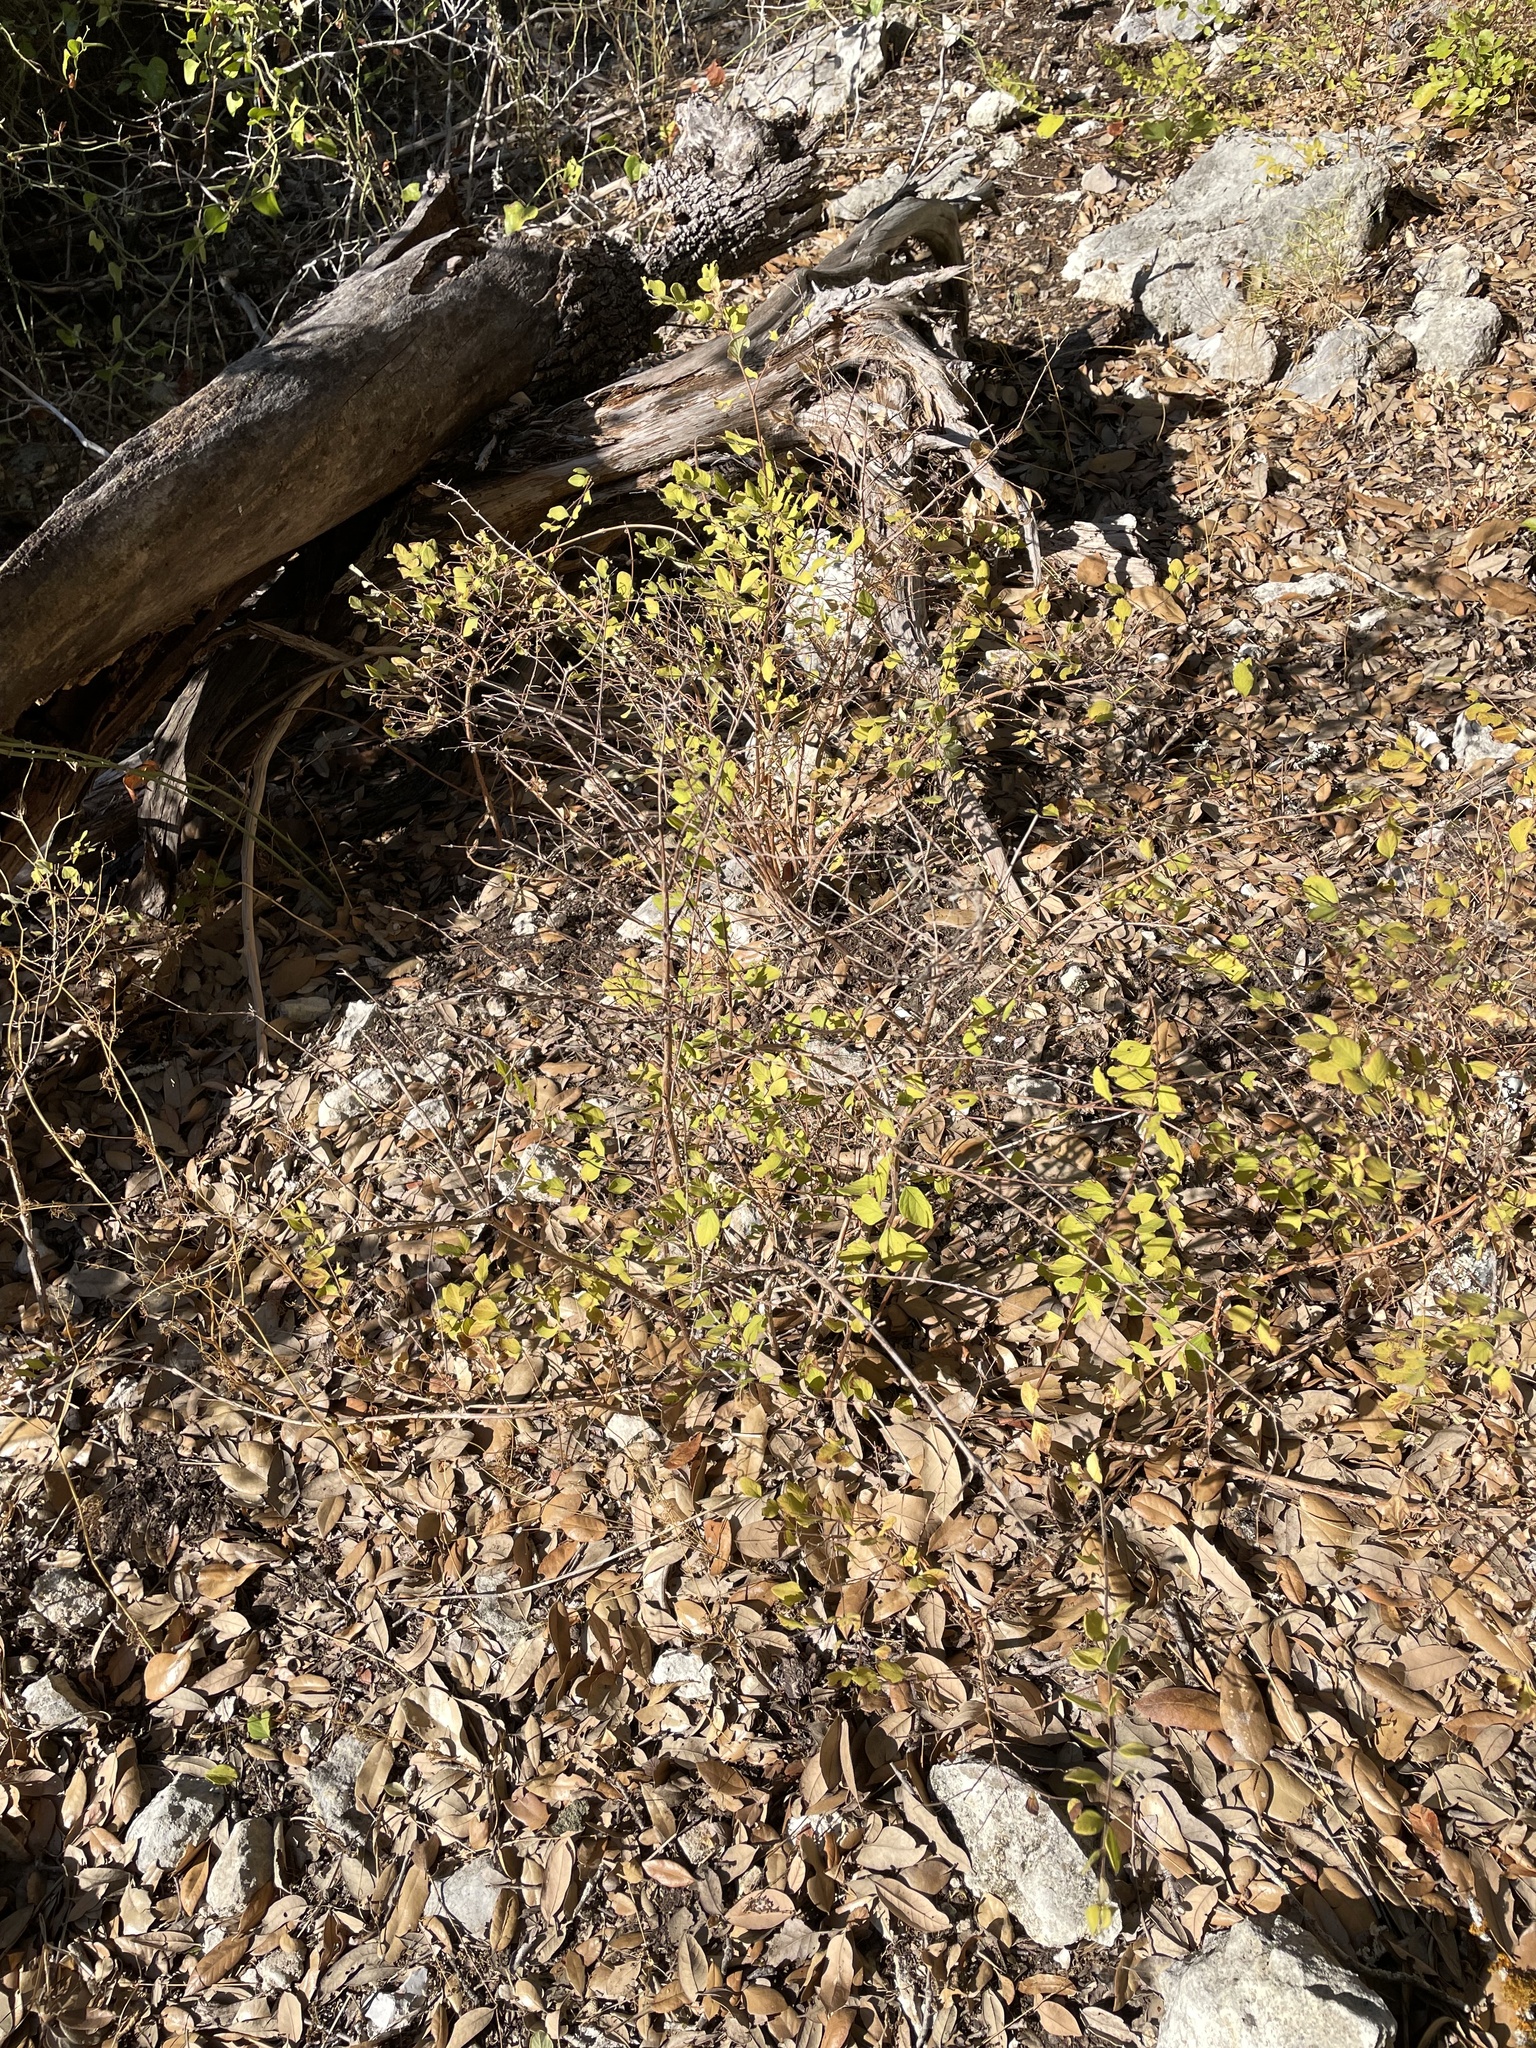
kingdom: Plantae
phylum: Tracheophyta
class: Magnoliopsida
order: Dipsacales
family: Caprifoliaceae
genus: Symphoricarpos
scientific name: Symphoricarpos orbiculatus
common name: Coralberry
